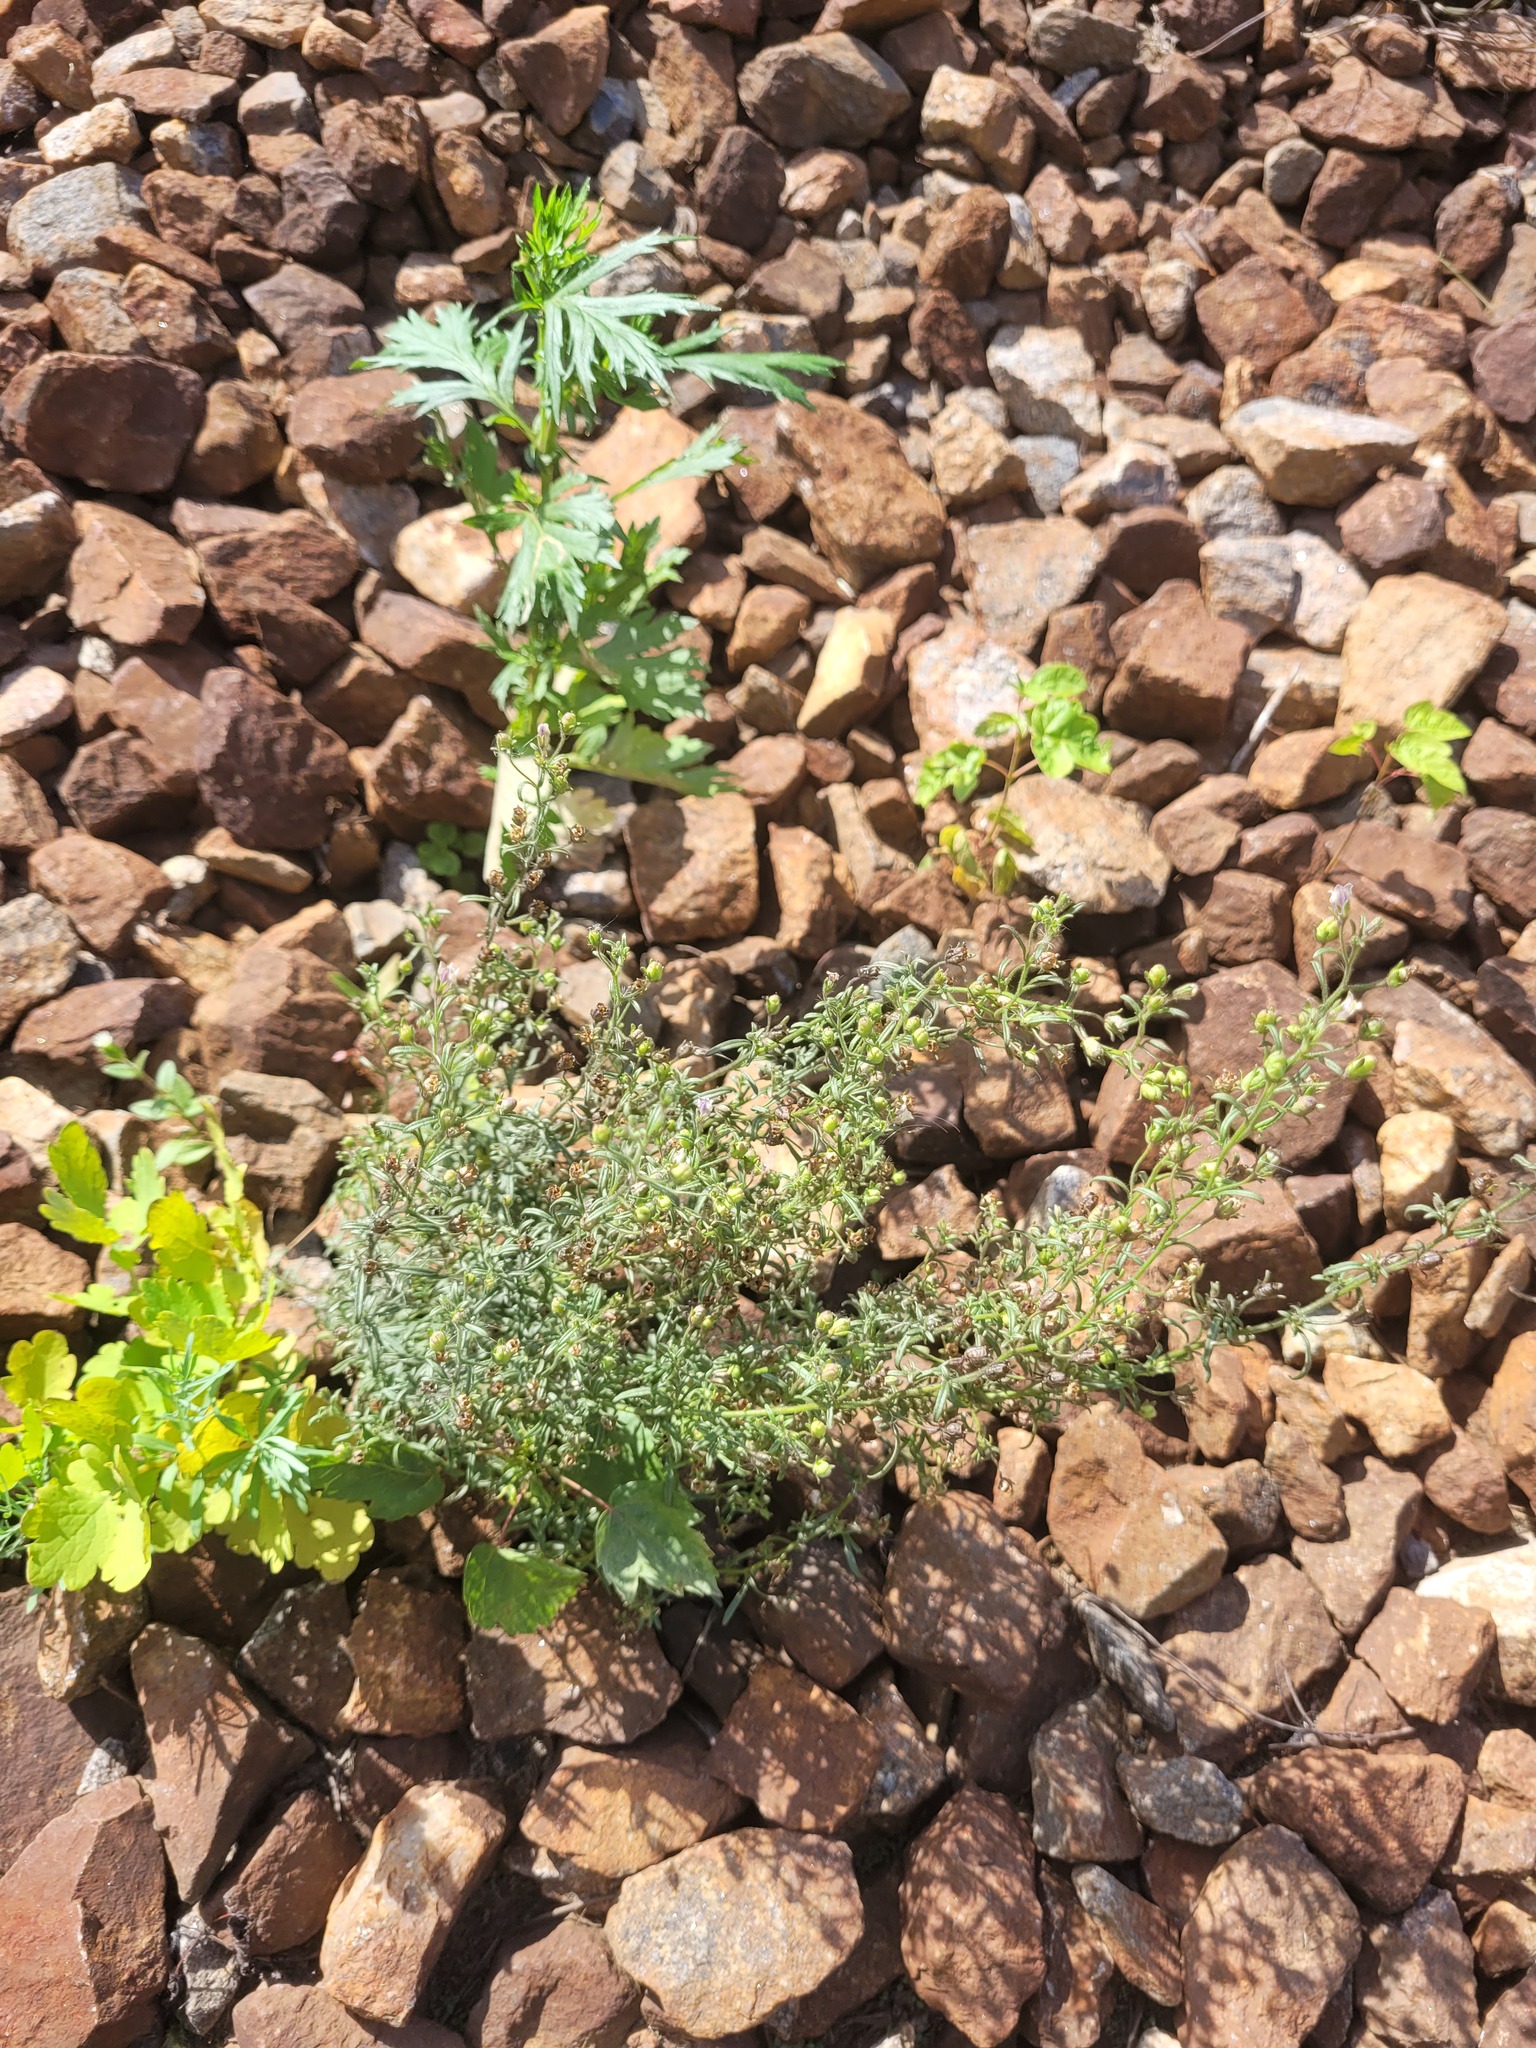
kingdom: Plantae
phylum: Tracheophyta
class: Magnoliopsida
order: Lamiales
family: Plantaginaceae
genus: Chaenorhinum
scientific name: Chaenorhinum minus
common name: Dwarf snapdragon
